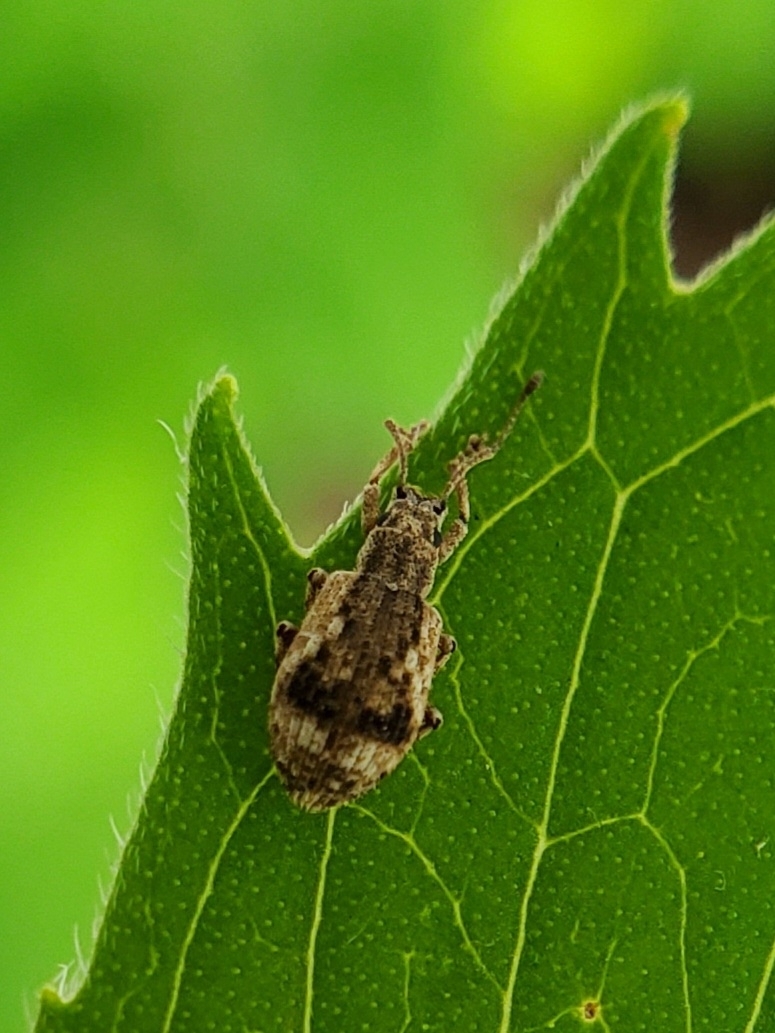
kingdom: Animalia
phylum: Arthropoda
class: Insecta
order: Coleoptera
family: Curculionidae
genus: Pseudoedophrys
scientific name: Pseudoedophrys hilleri
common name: Weevil
